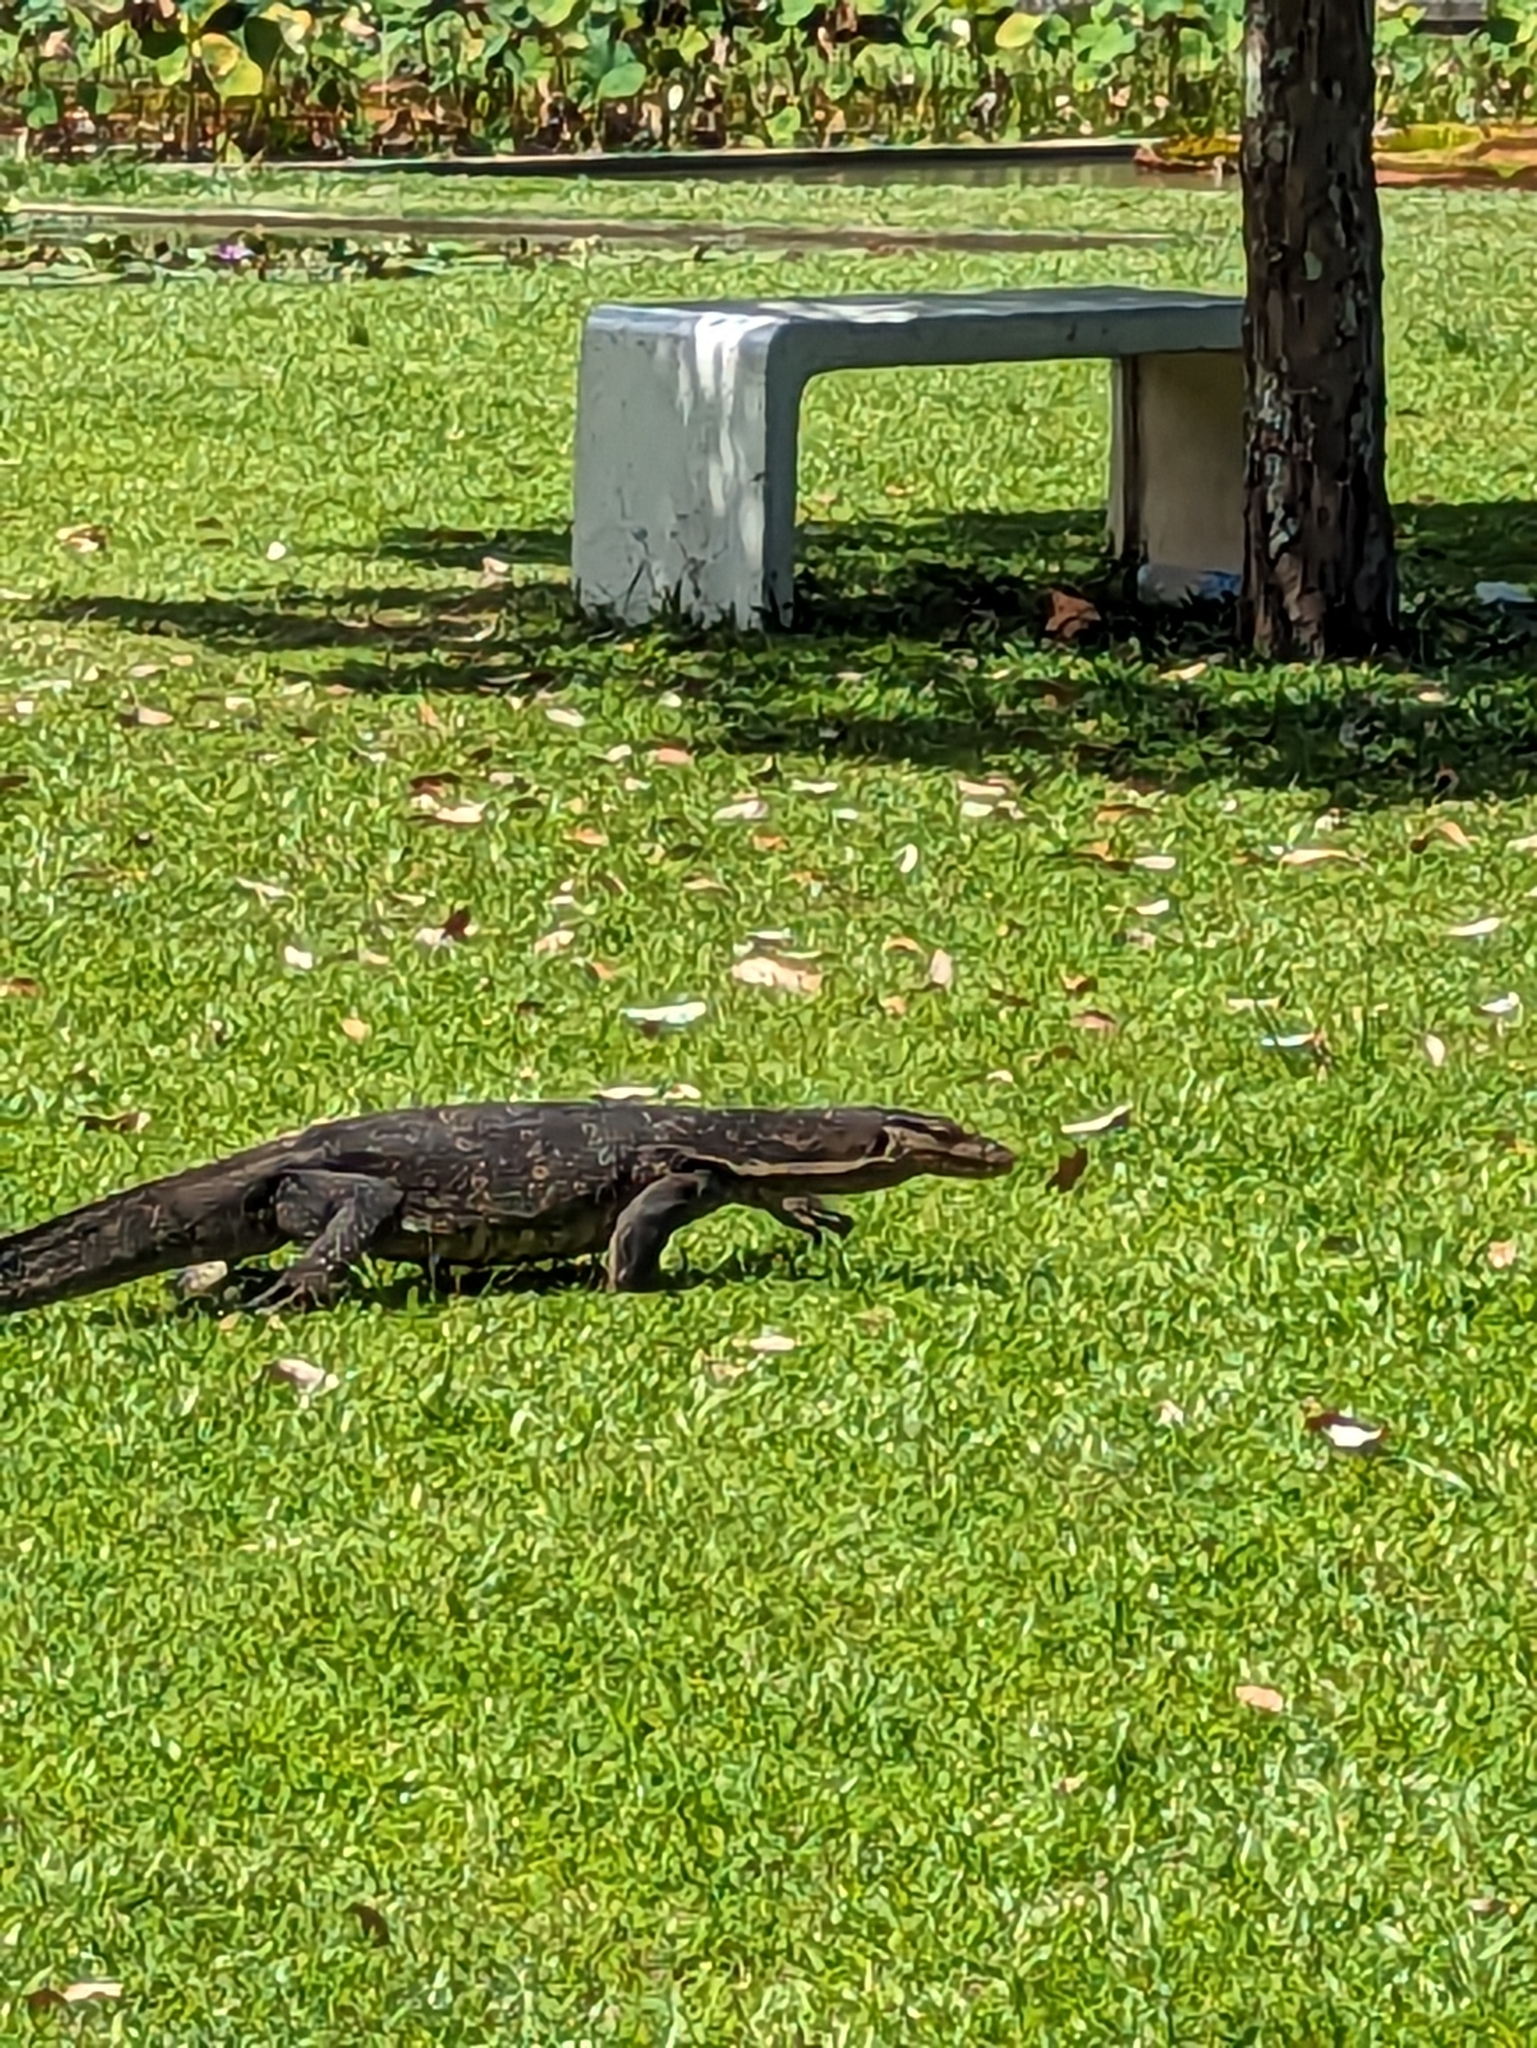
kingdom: Animalia
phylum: Chordata
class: Squamata
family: Varanidae
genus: Varanus
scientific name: Varanus salvator
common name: Common water monitor
